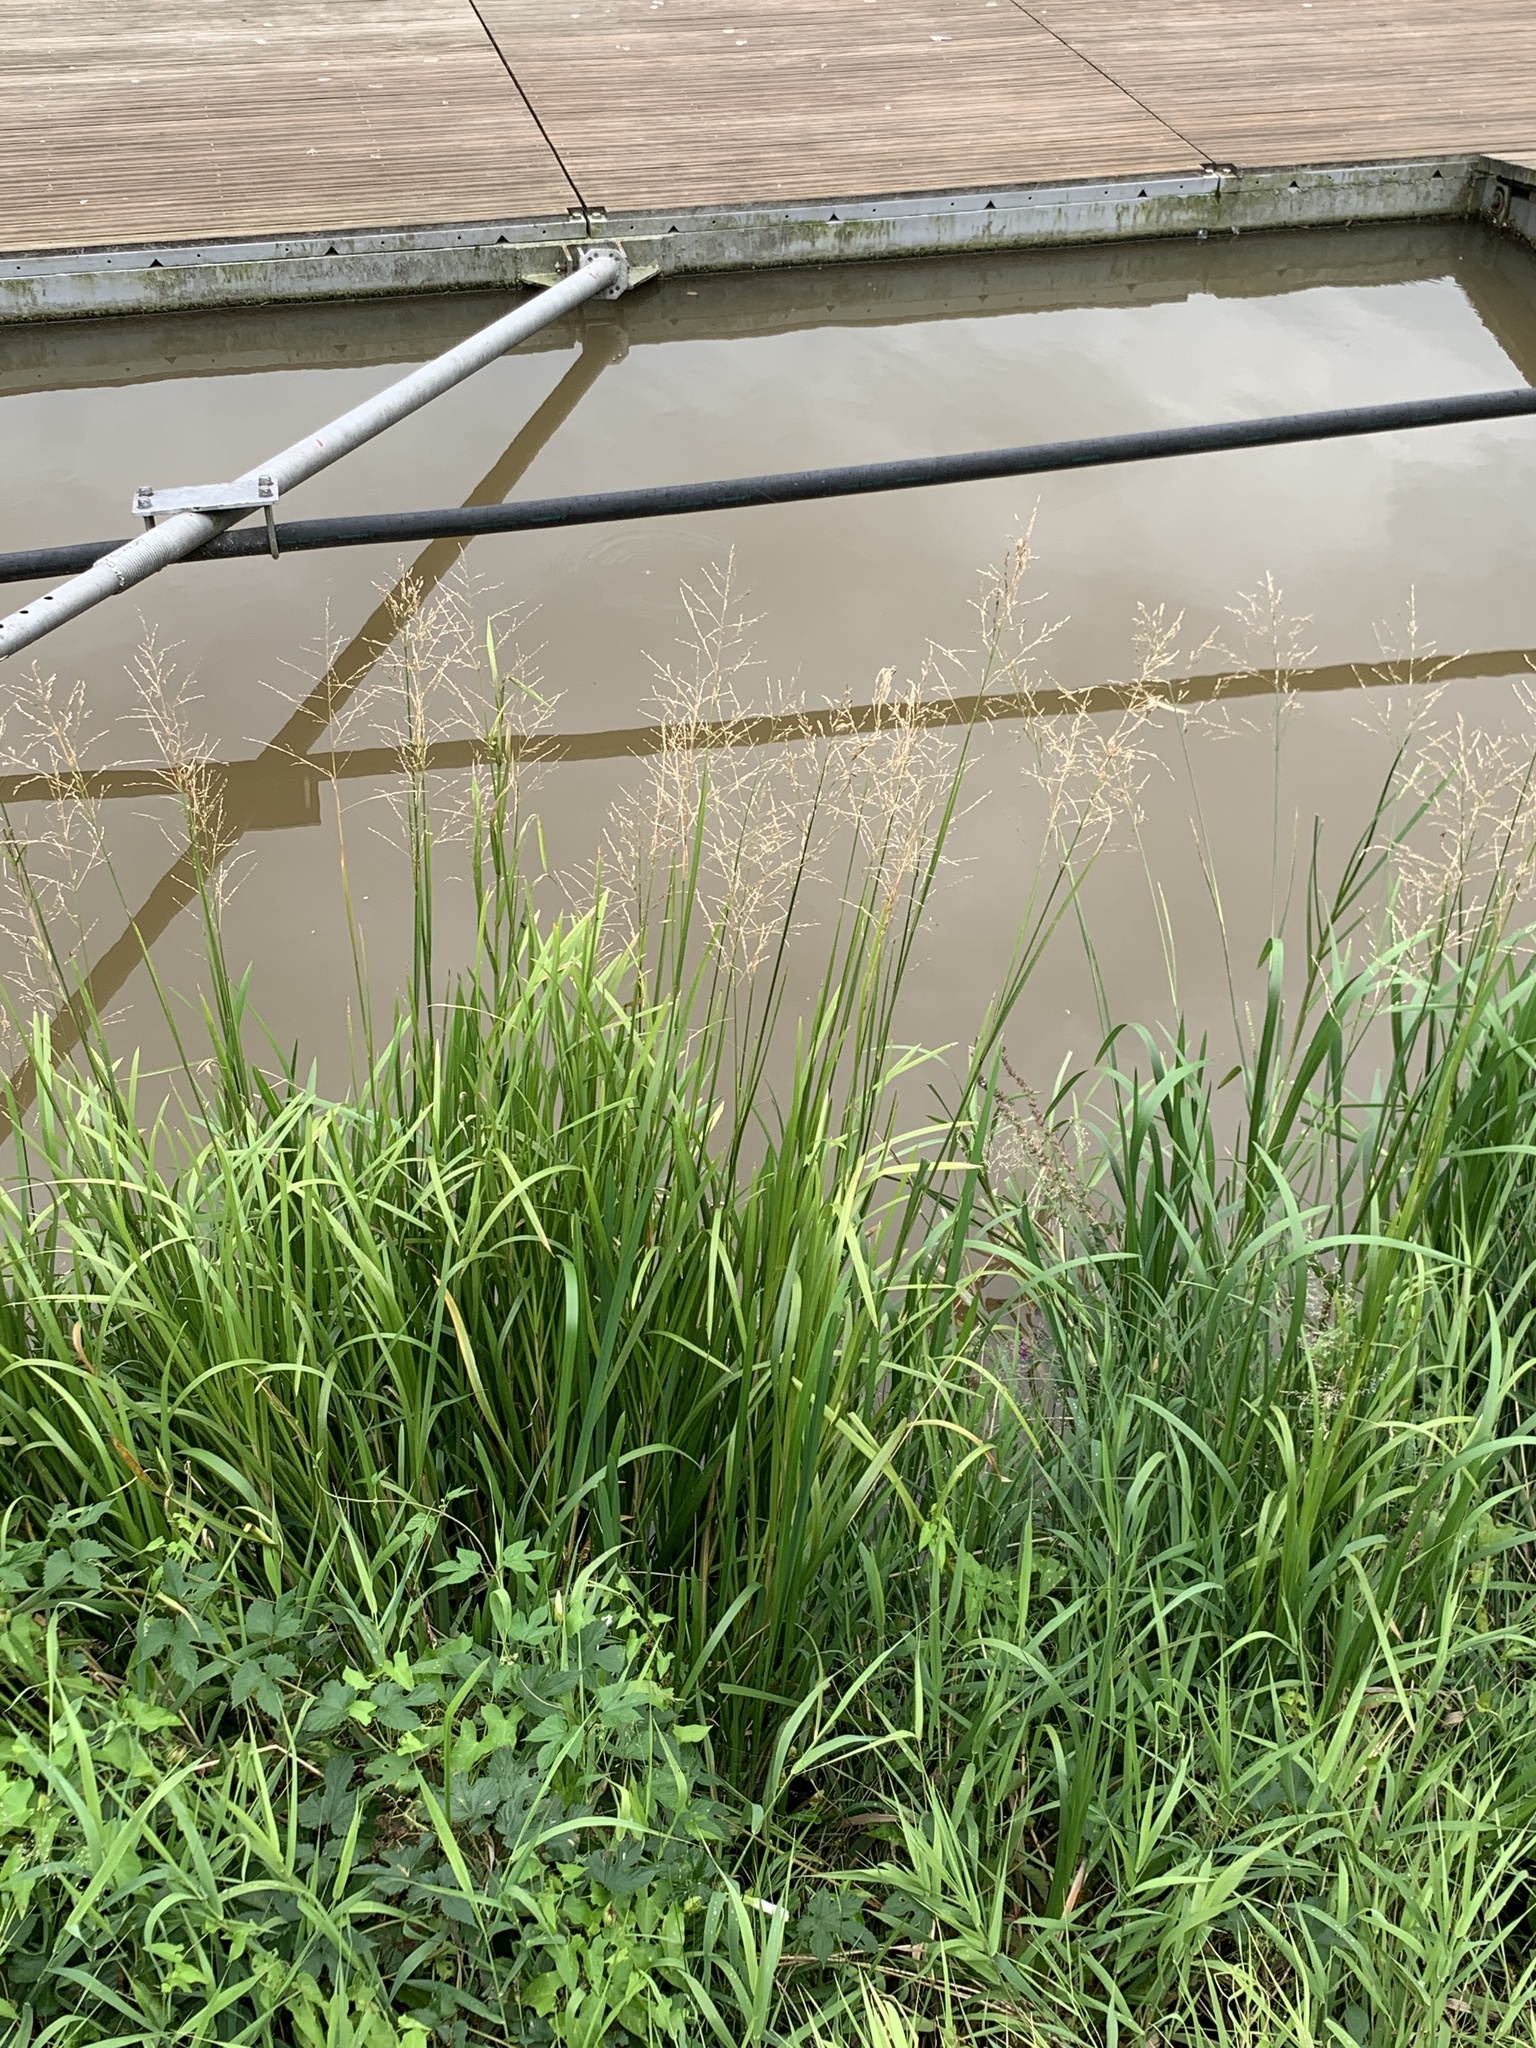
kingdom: Plantae
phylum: Tracheophyta
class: Liliopsida
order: Poales
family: Poaceae
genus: Glyceria
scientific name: Glyceria maxima
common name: Reed mannagrass
